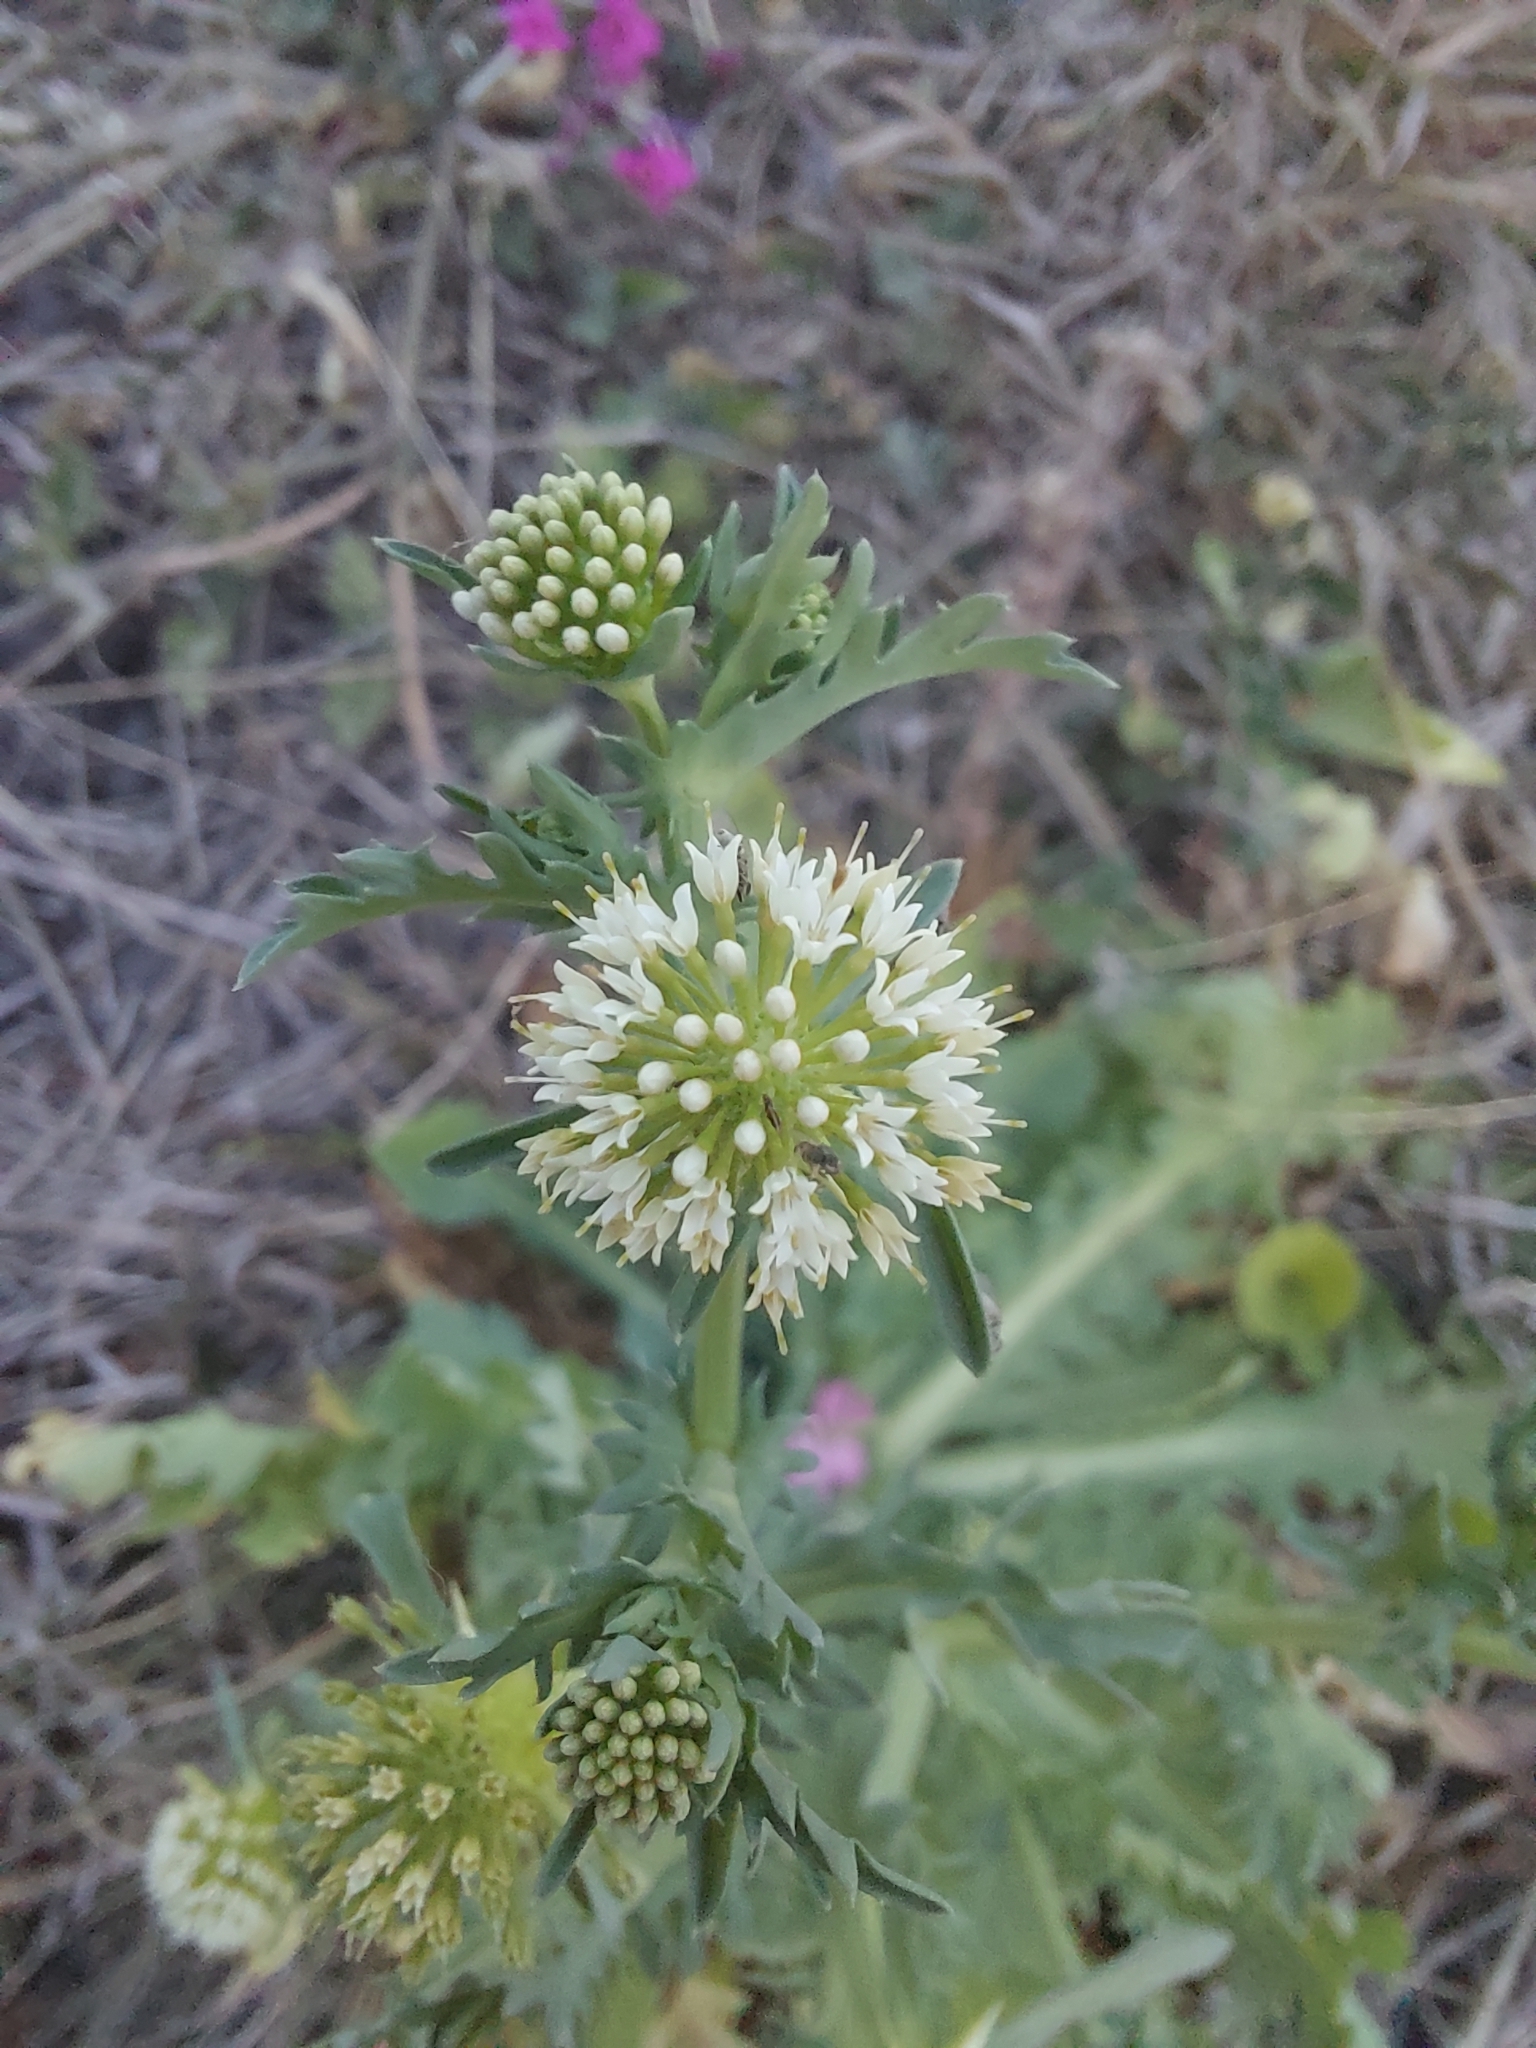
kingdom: Plantae
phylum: Tracheophyta
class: Magnoliopsida
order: Asterales
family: Calyceraceae
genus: Acicarpha
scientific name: Acicarpha tribuloides
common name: Madam gorgon
